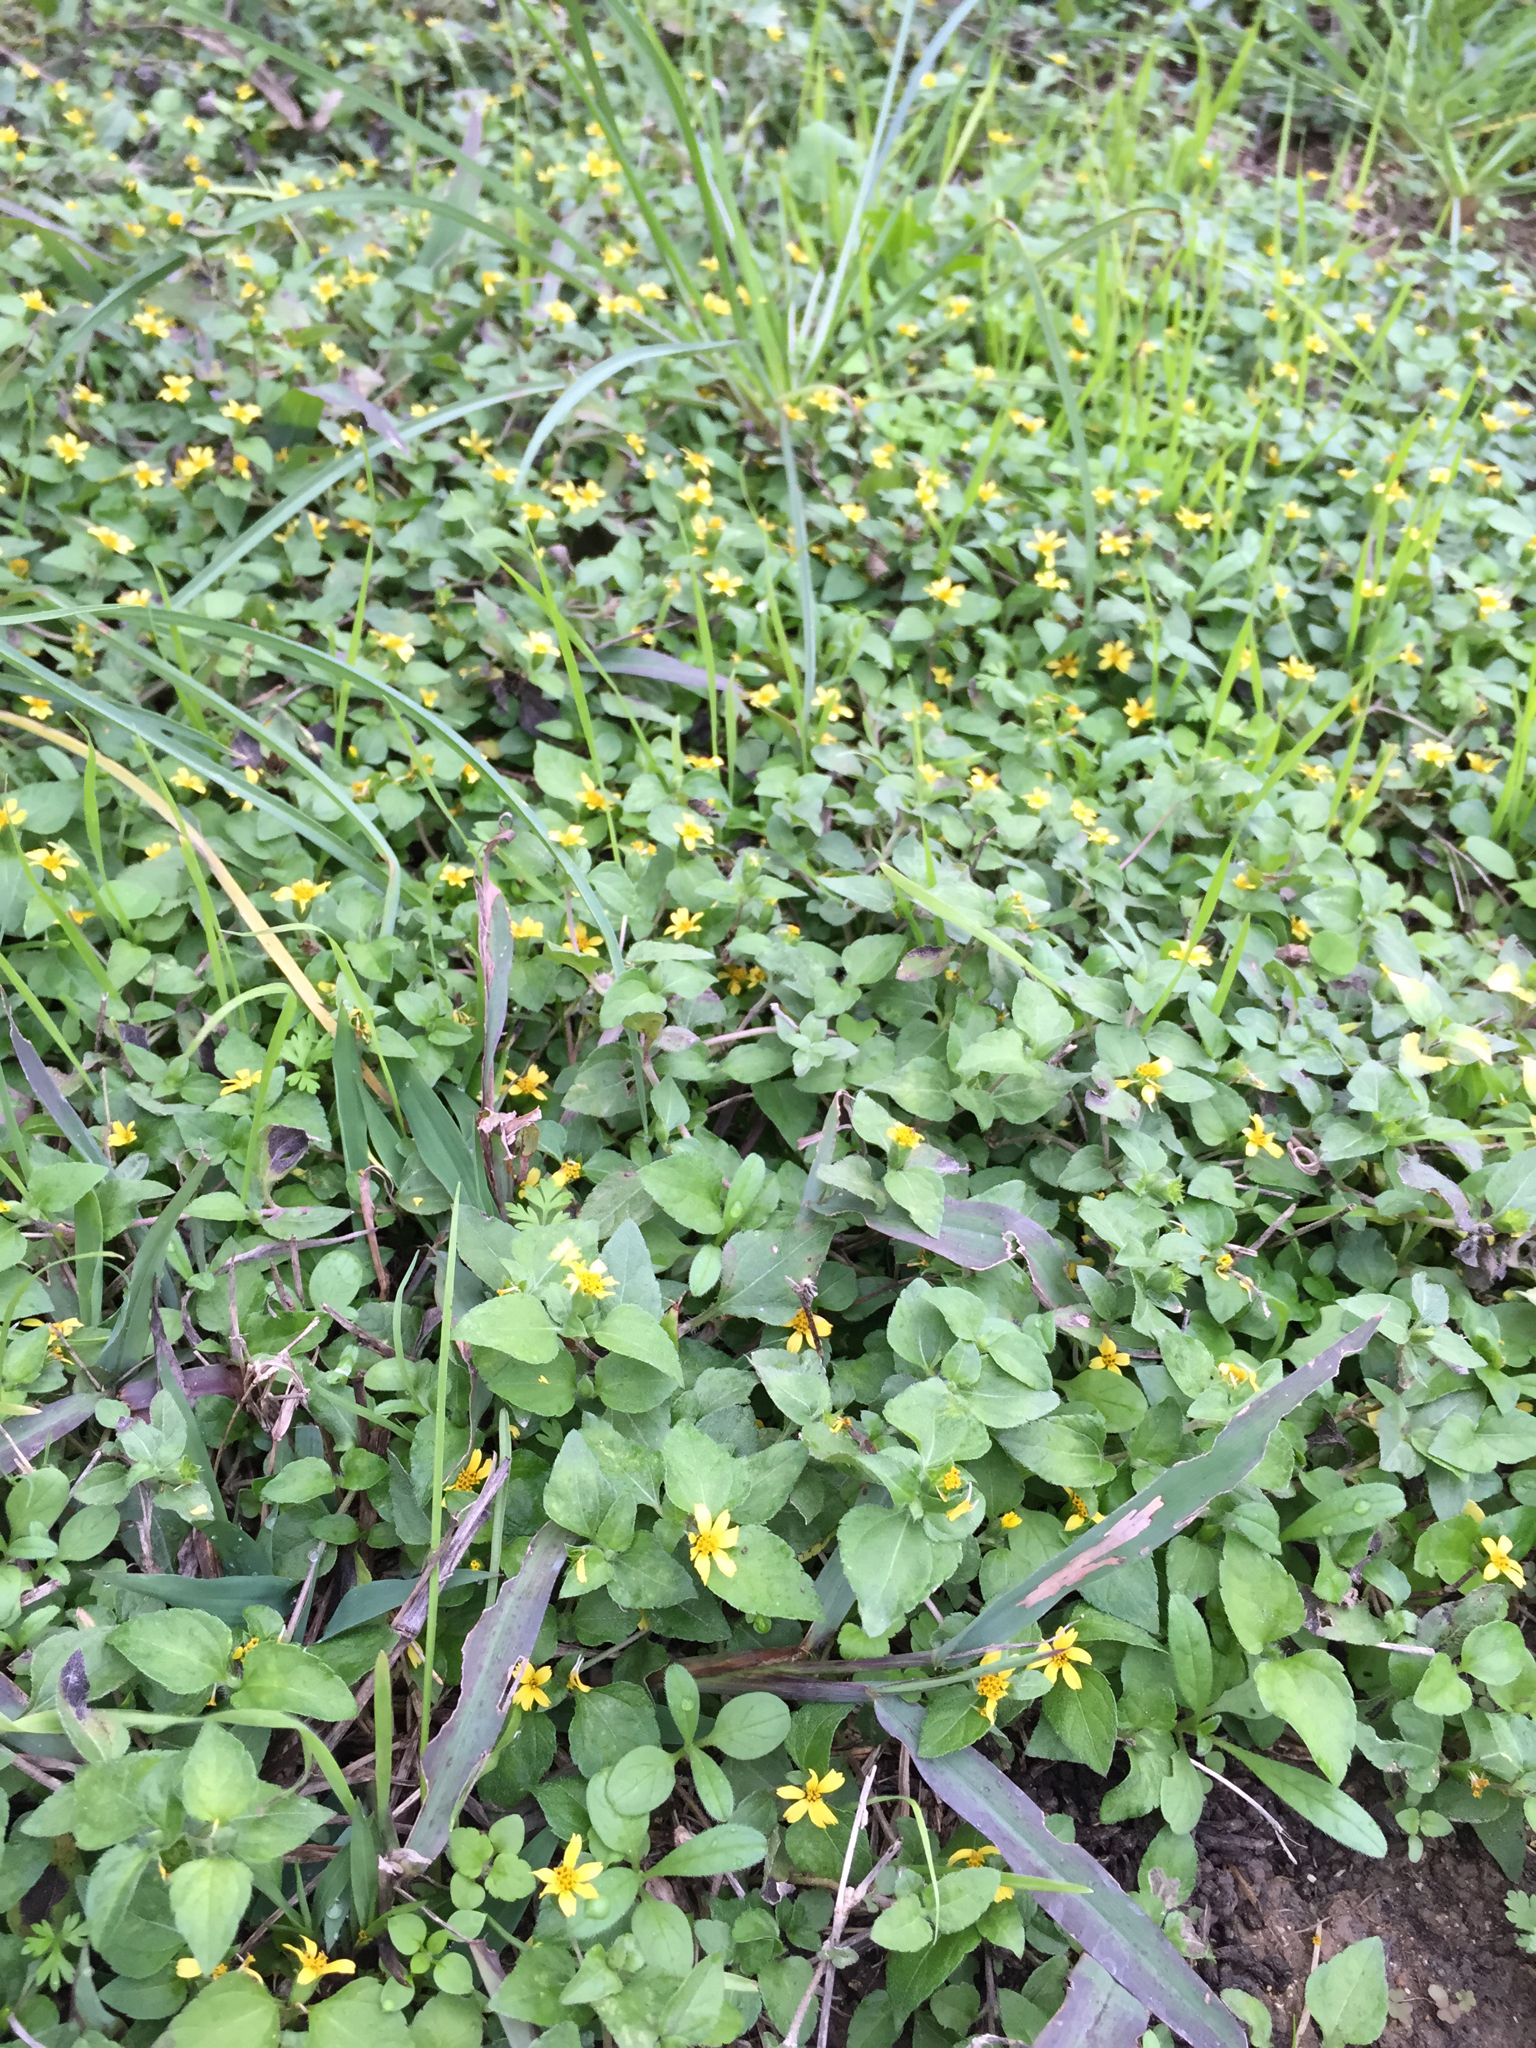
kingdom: Plantae
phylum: Tracheophyta
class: Magnoliopsida
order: Asterales
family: Asteraceae
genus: Calyptocarpus
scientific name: Calyptocarpus vialis
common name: Straggler daisy
